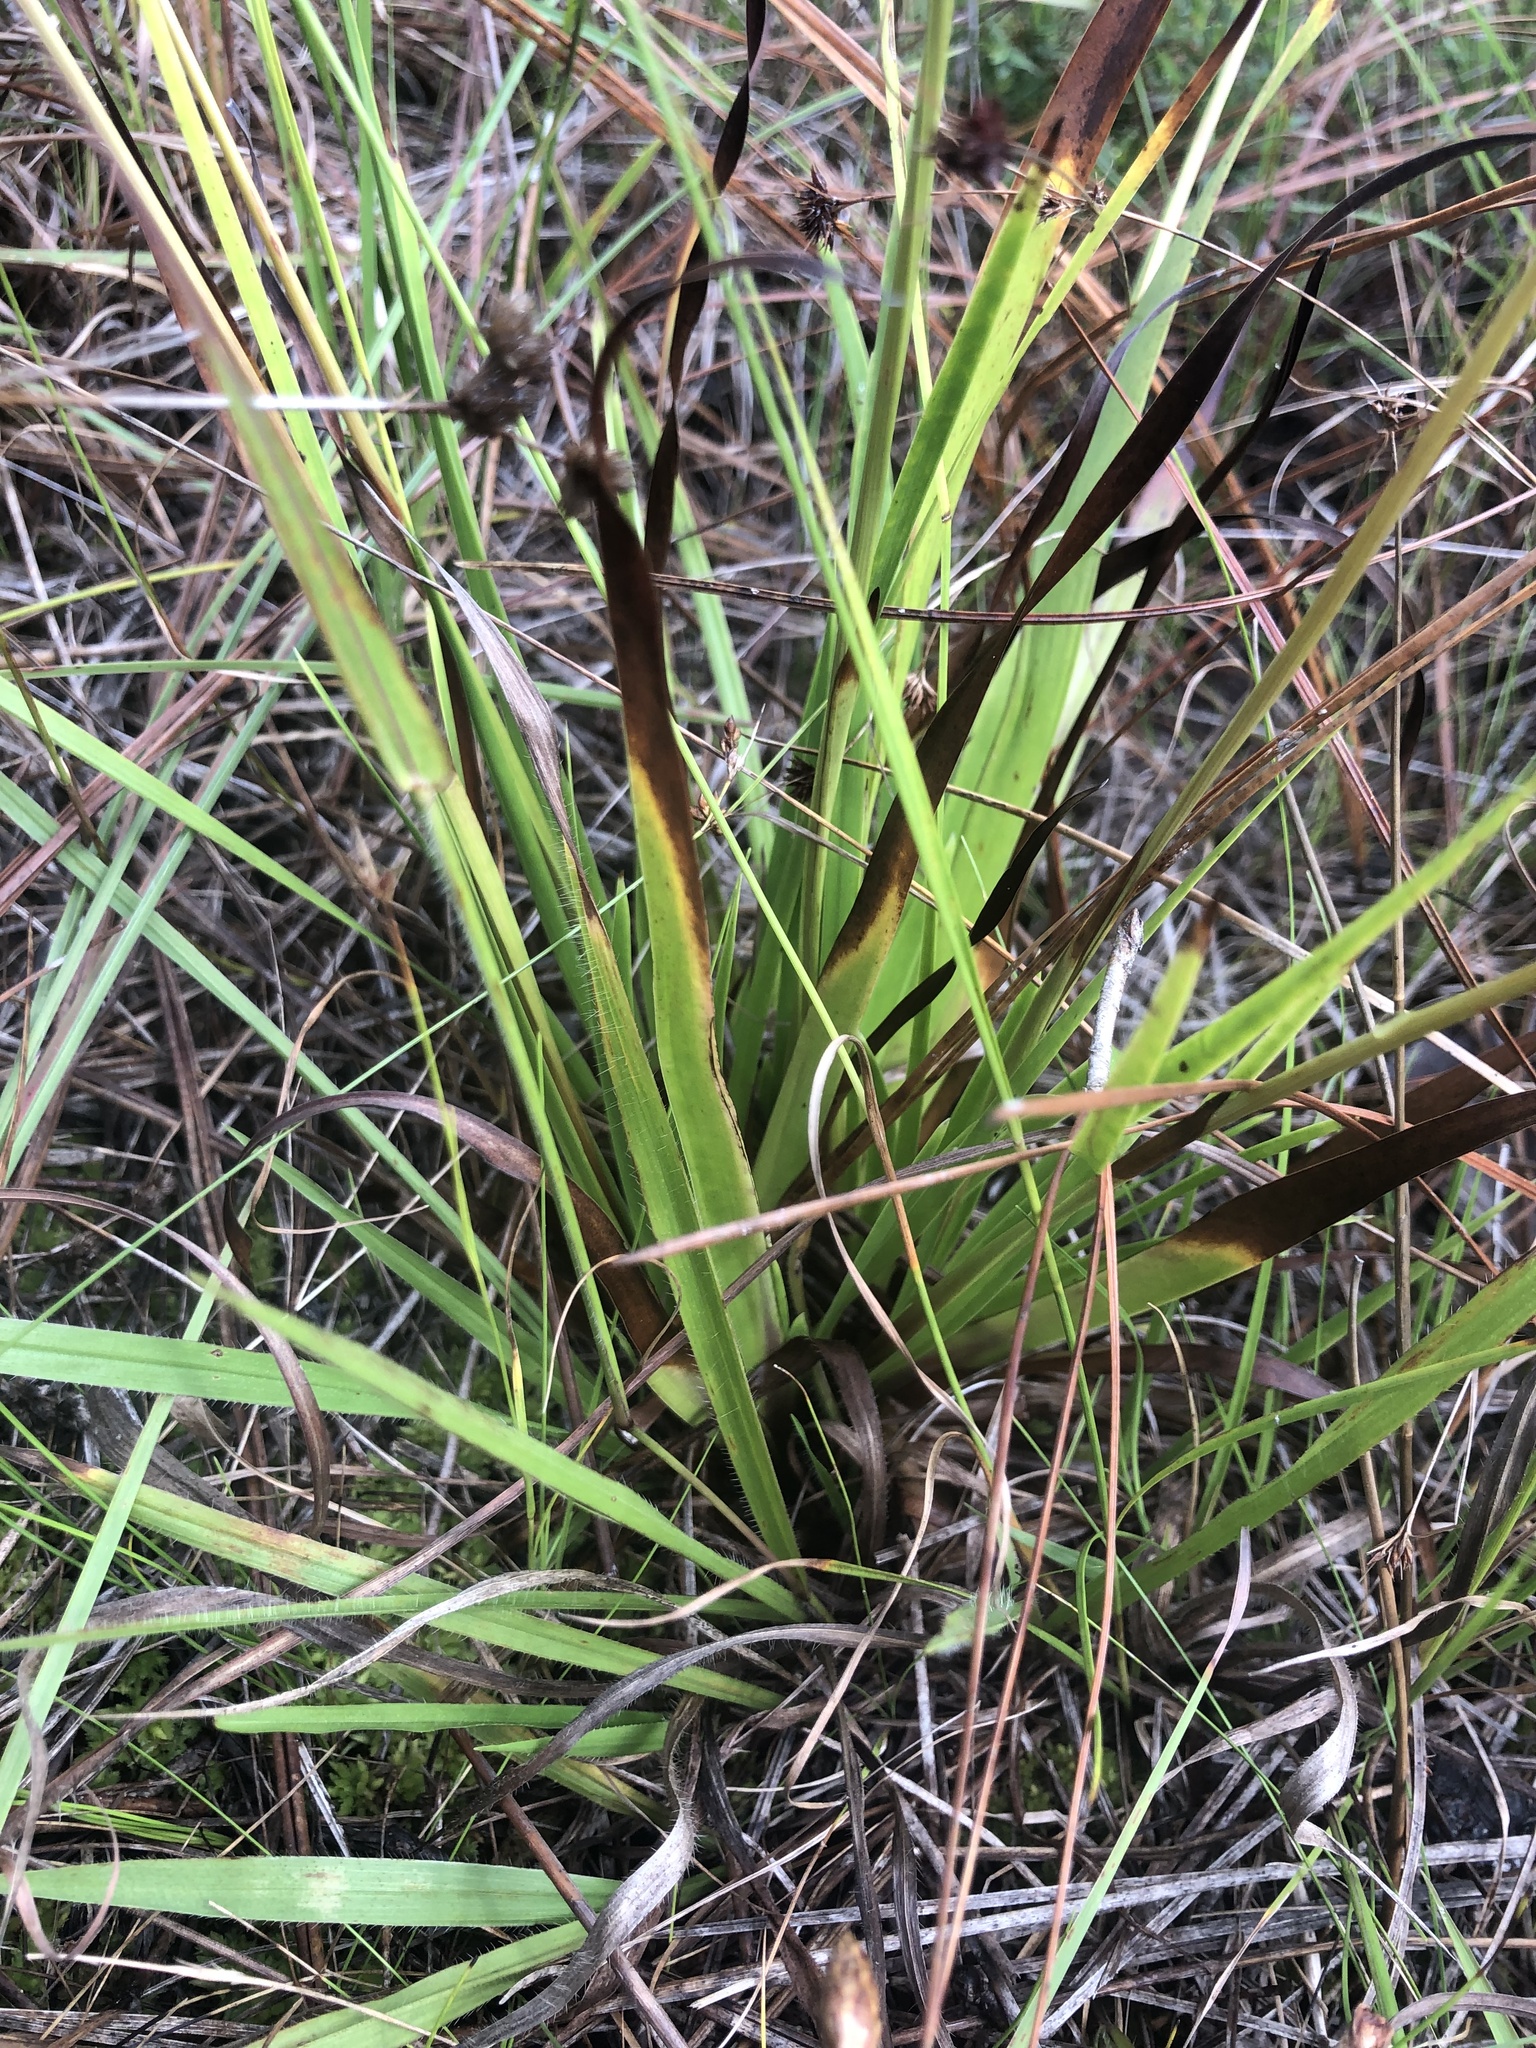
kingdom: Plantae
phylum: Tracheophyta
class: Liliopsida
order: Poales
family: Xyridaceae
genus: Xyris
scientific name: Xyris ambigua
